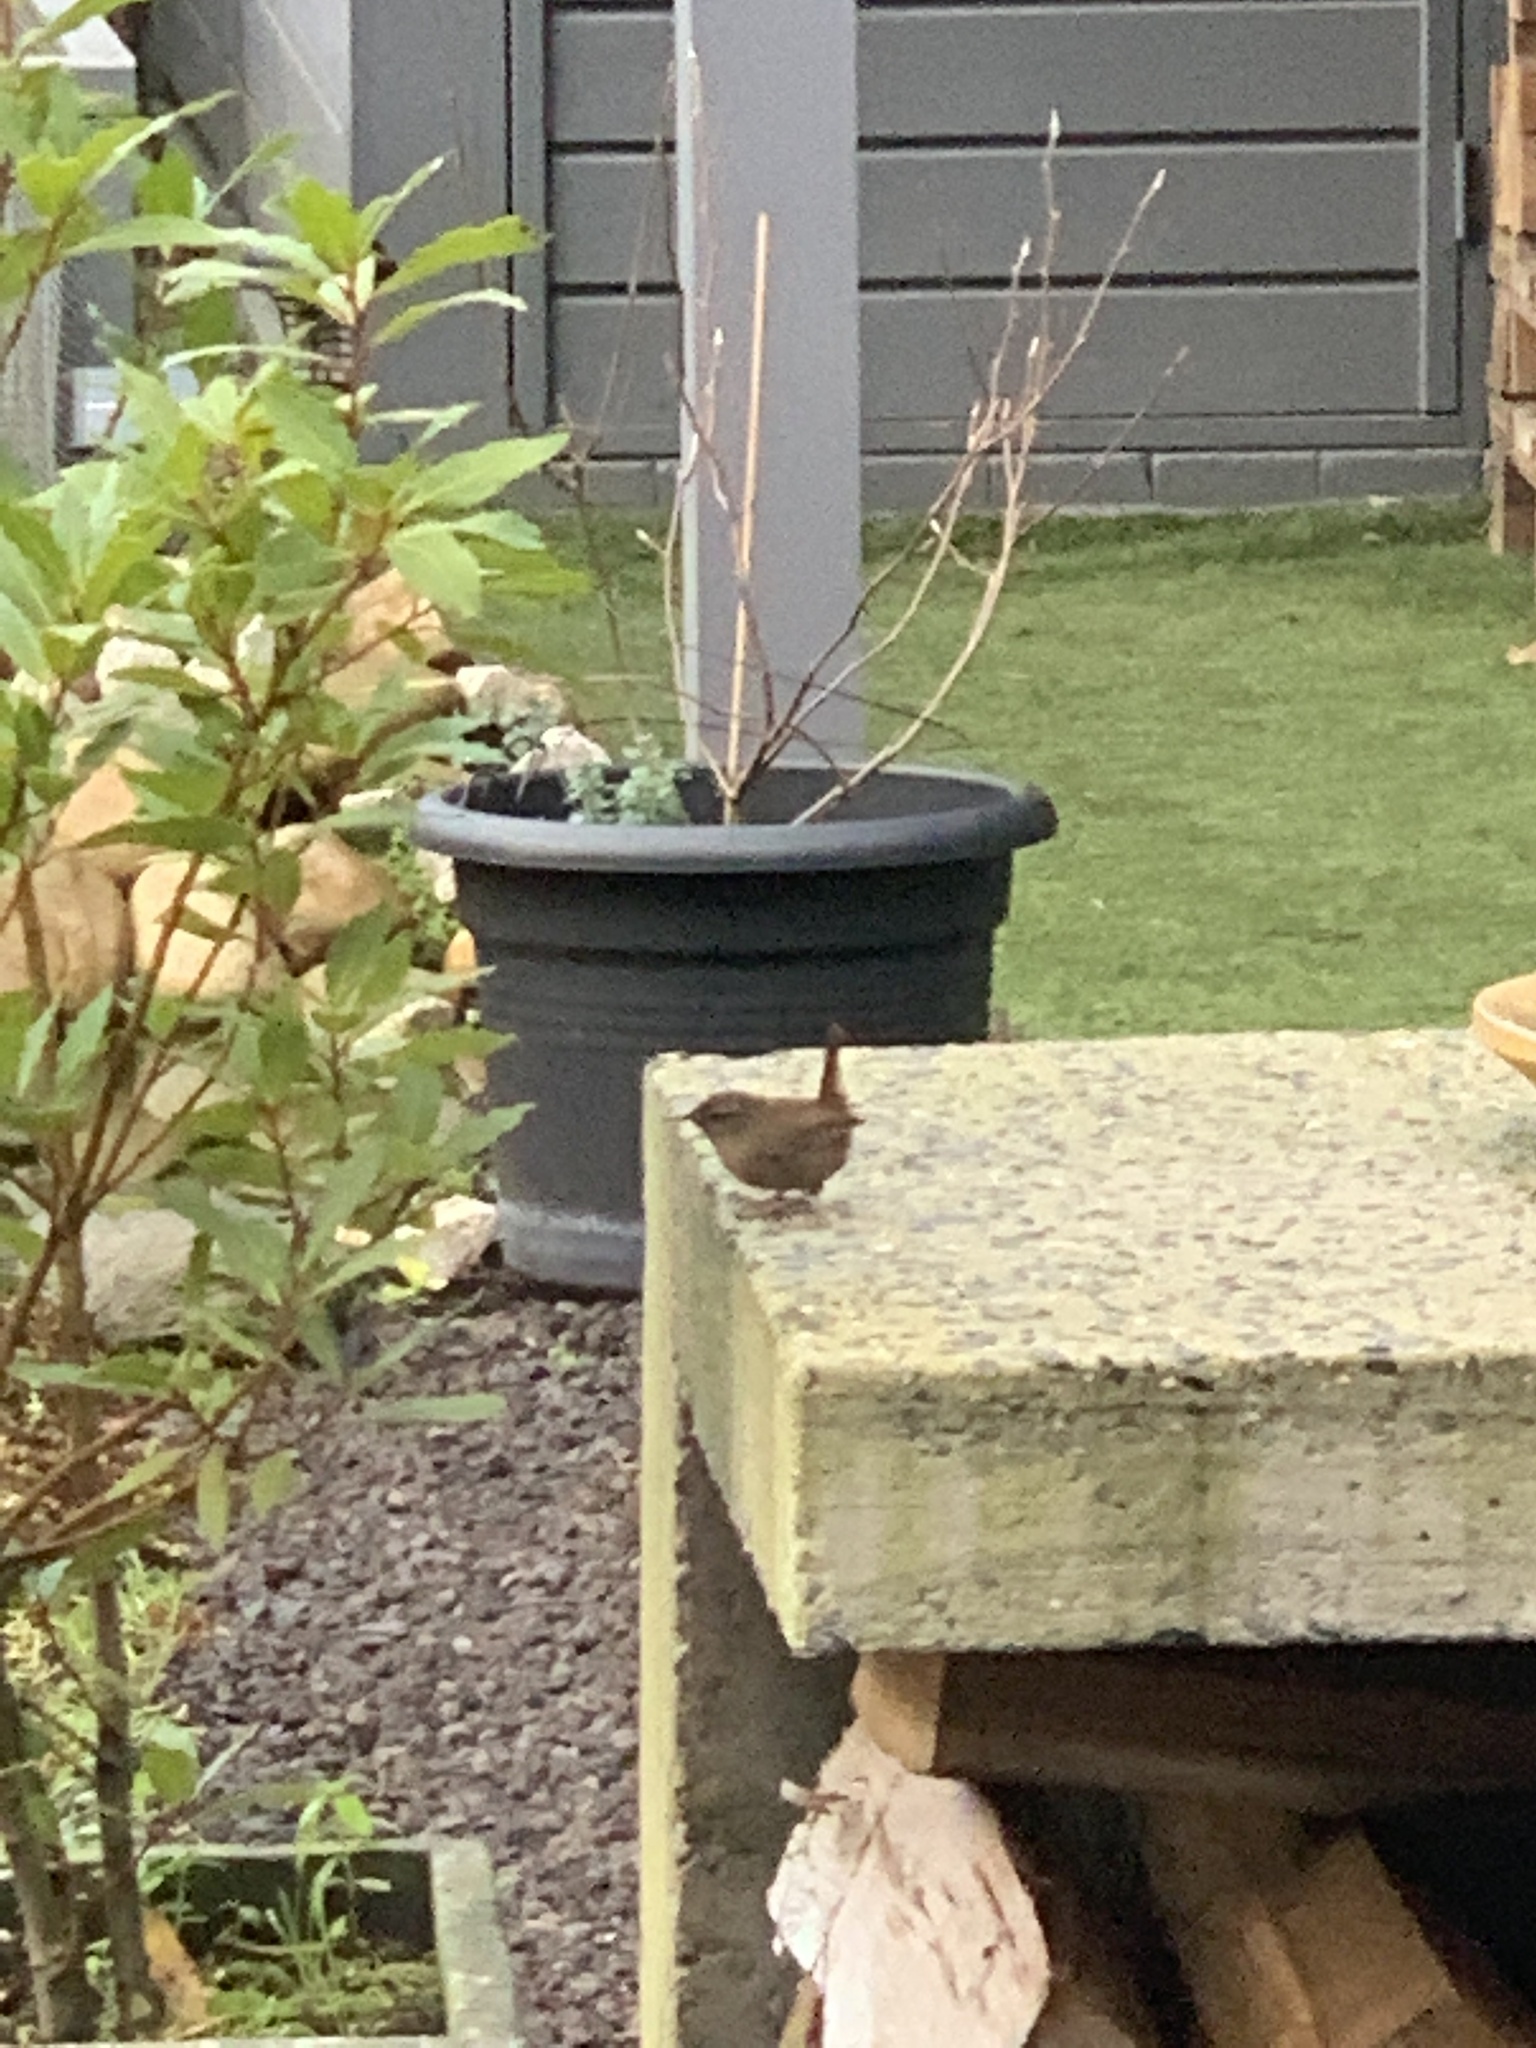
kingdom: Animalia
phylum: Chordata
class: Aves
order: Passeriformes
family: Troglodytidae
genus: Troglodytes
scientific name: Troglodytes troglodytes
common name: Eurasian wren
